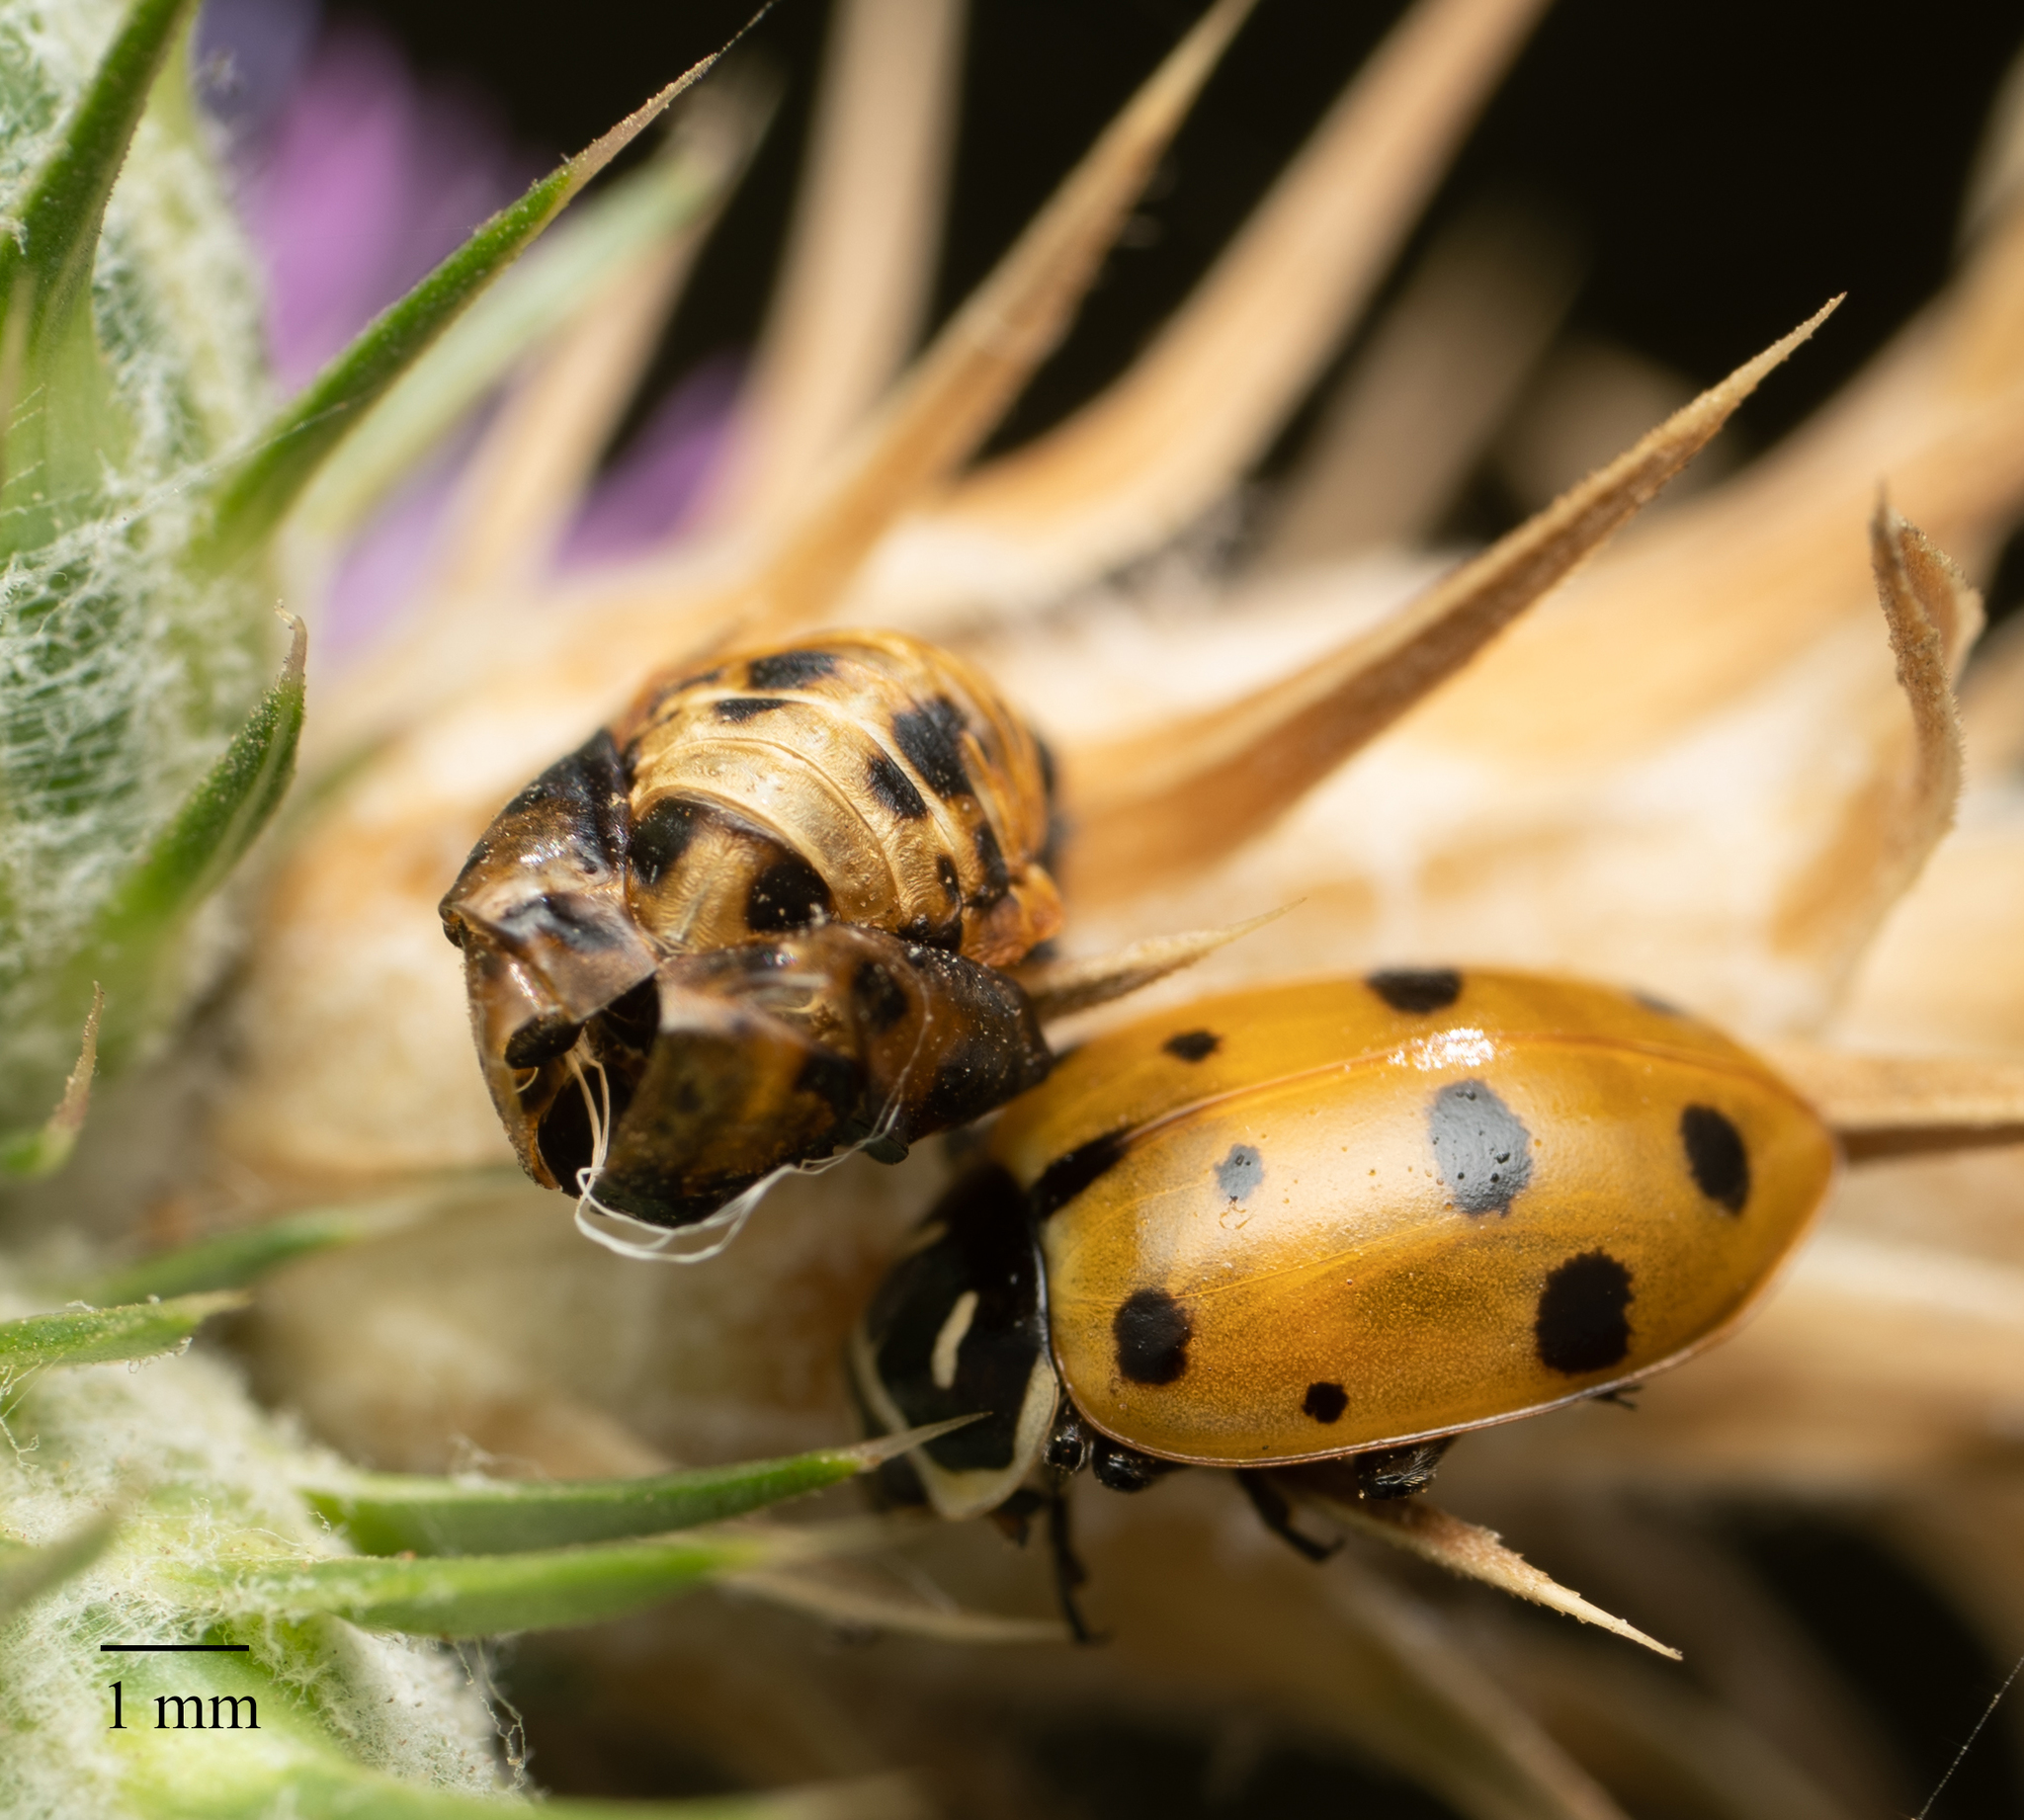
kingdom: Animalia
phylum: Arthropoda
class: Insecta
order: Coleoptera
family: Coccinellidae
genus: Hippodamia
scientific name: Hippodamia convergens
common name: Convergent lady beetle
